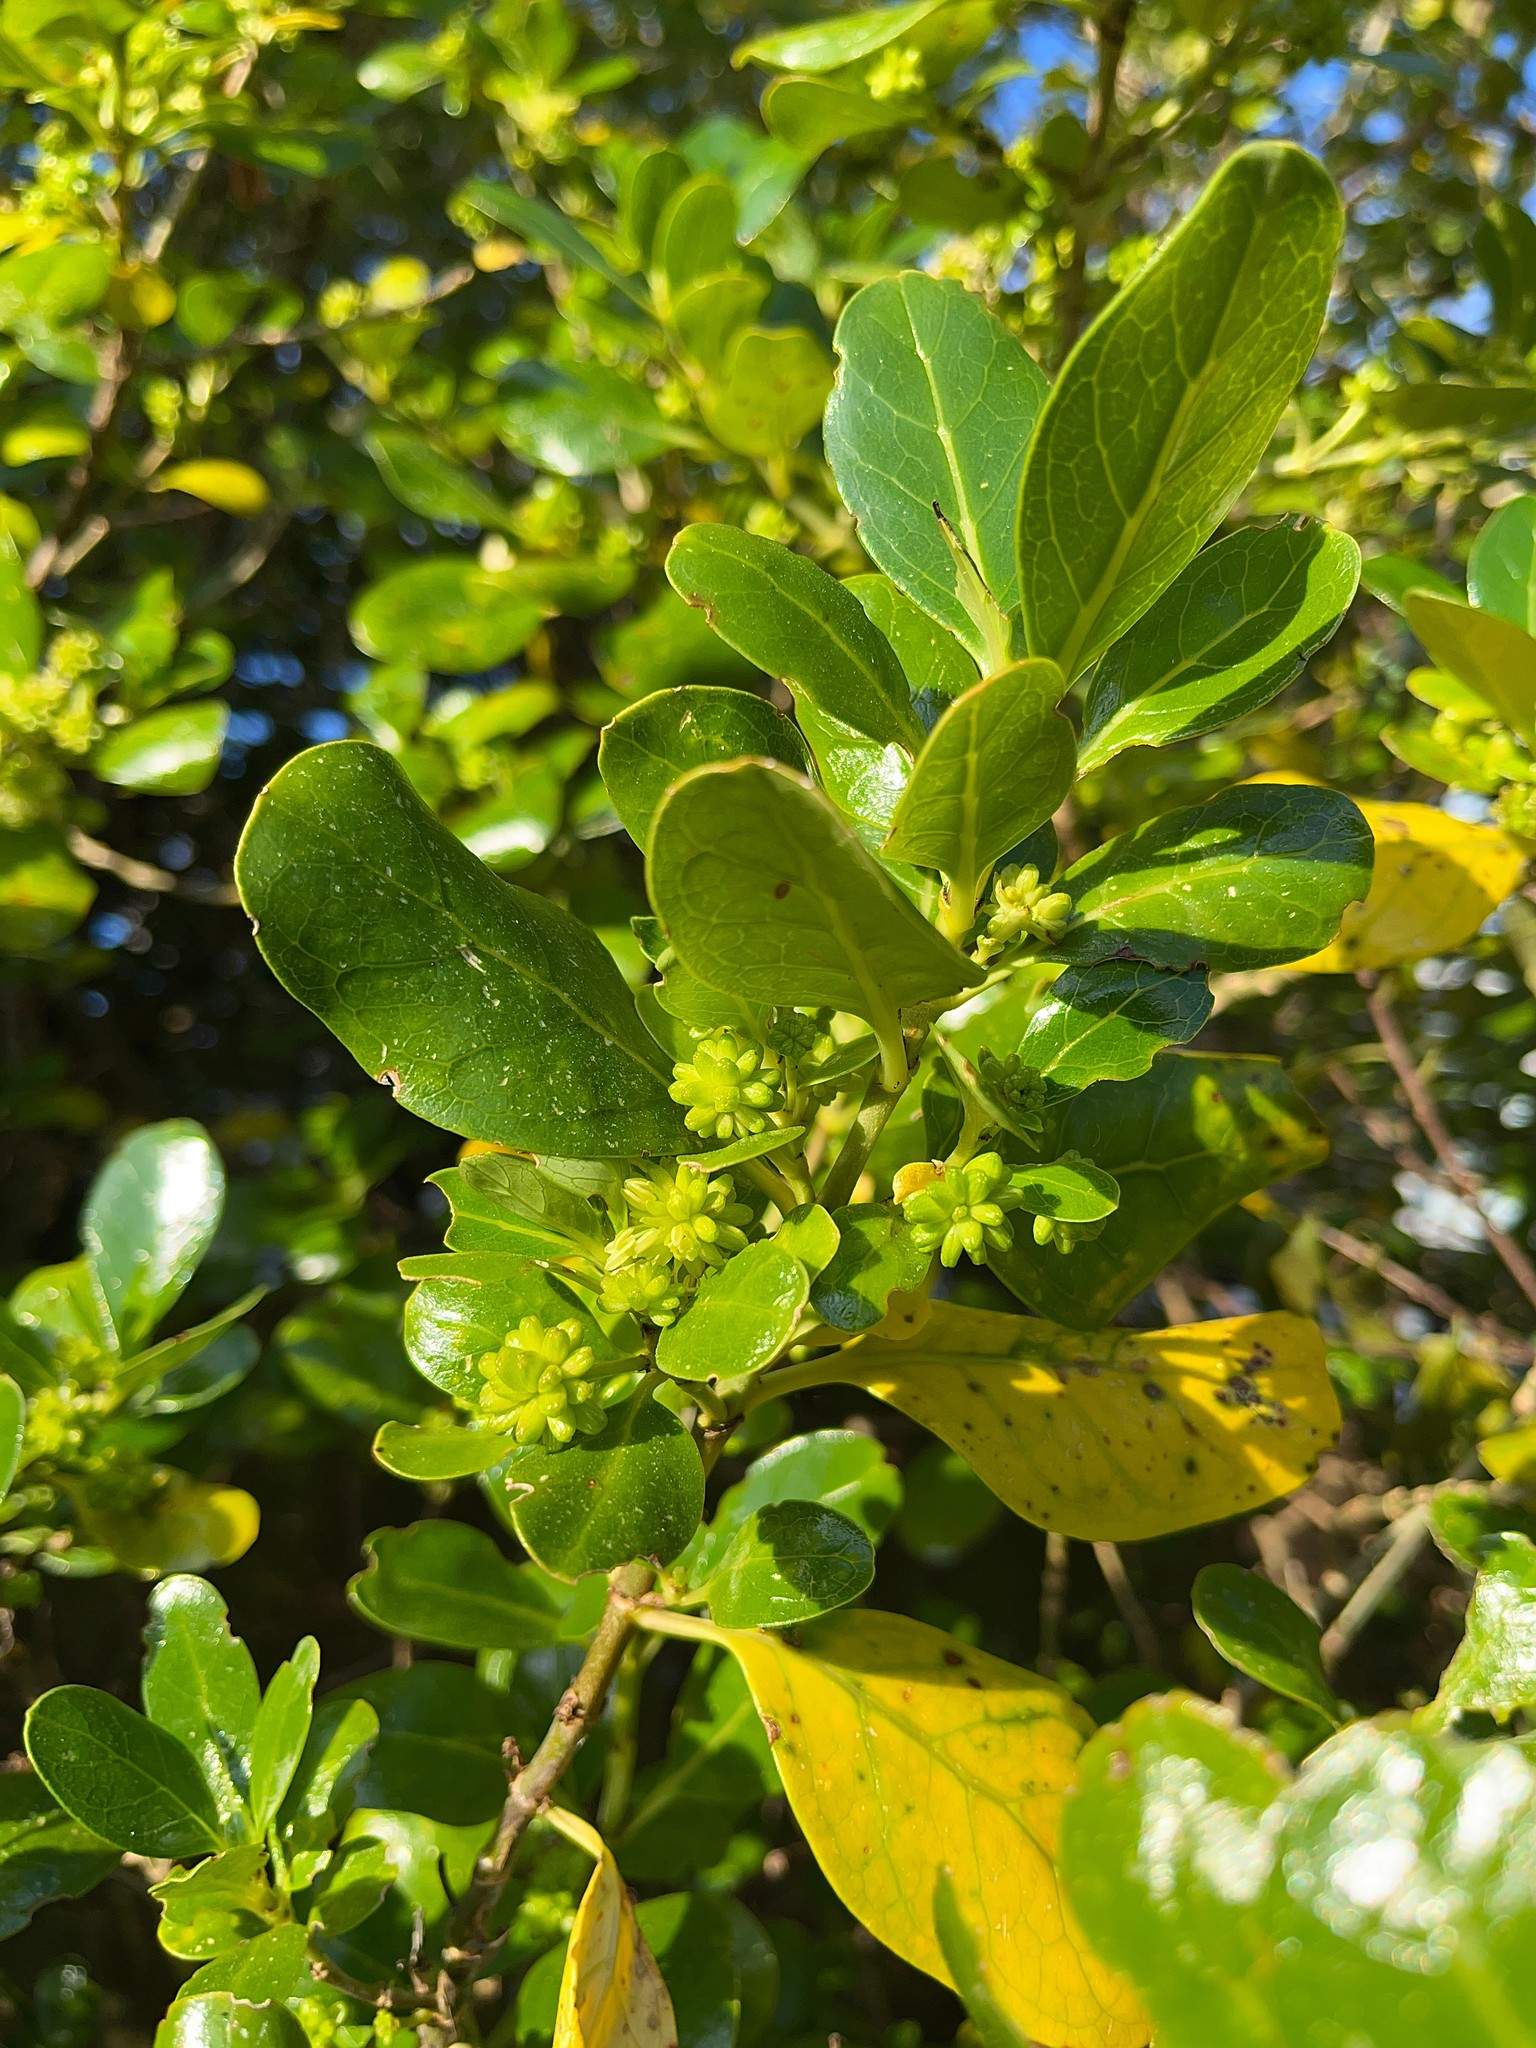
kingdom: Plantae
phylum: Tracheophyta
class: Magnoliopsida
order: Gentianales
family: Rubiaceae
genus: Coprosma
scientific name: Coprosma repens
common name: Tree bedstraw
